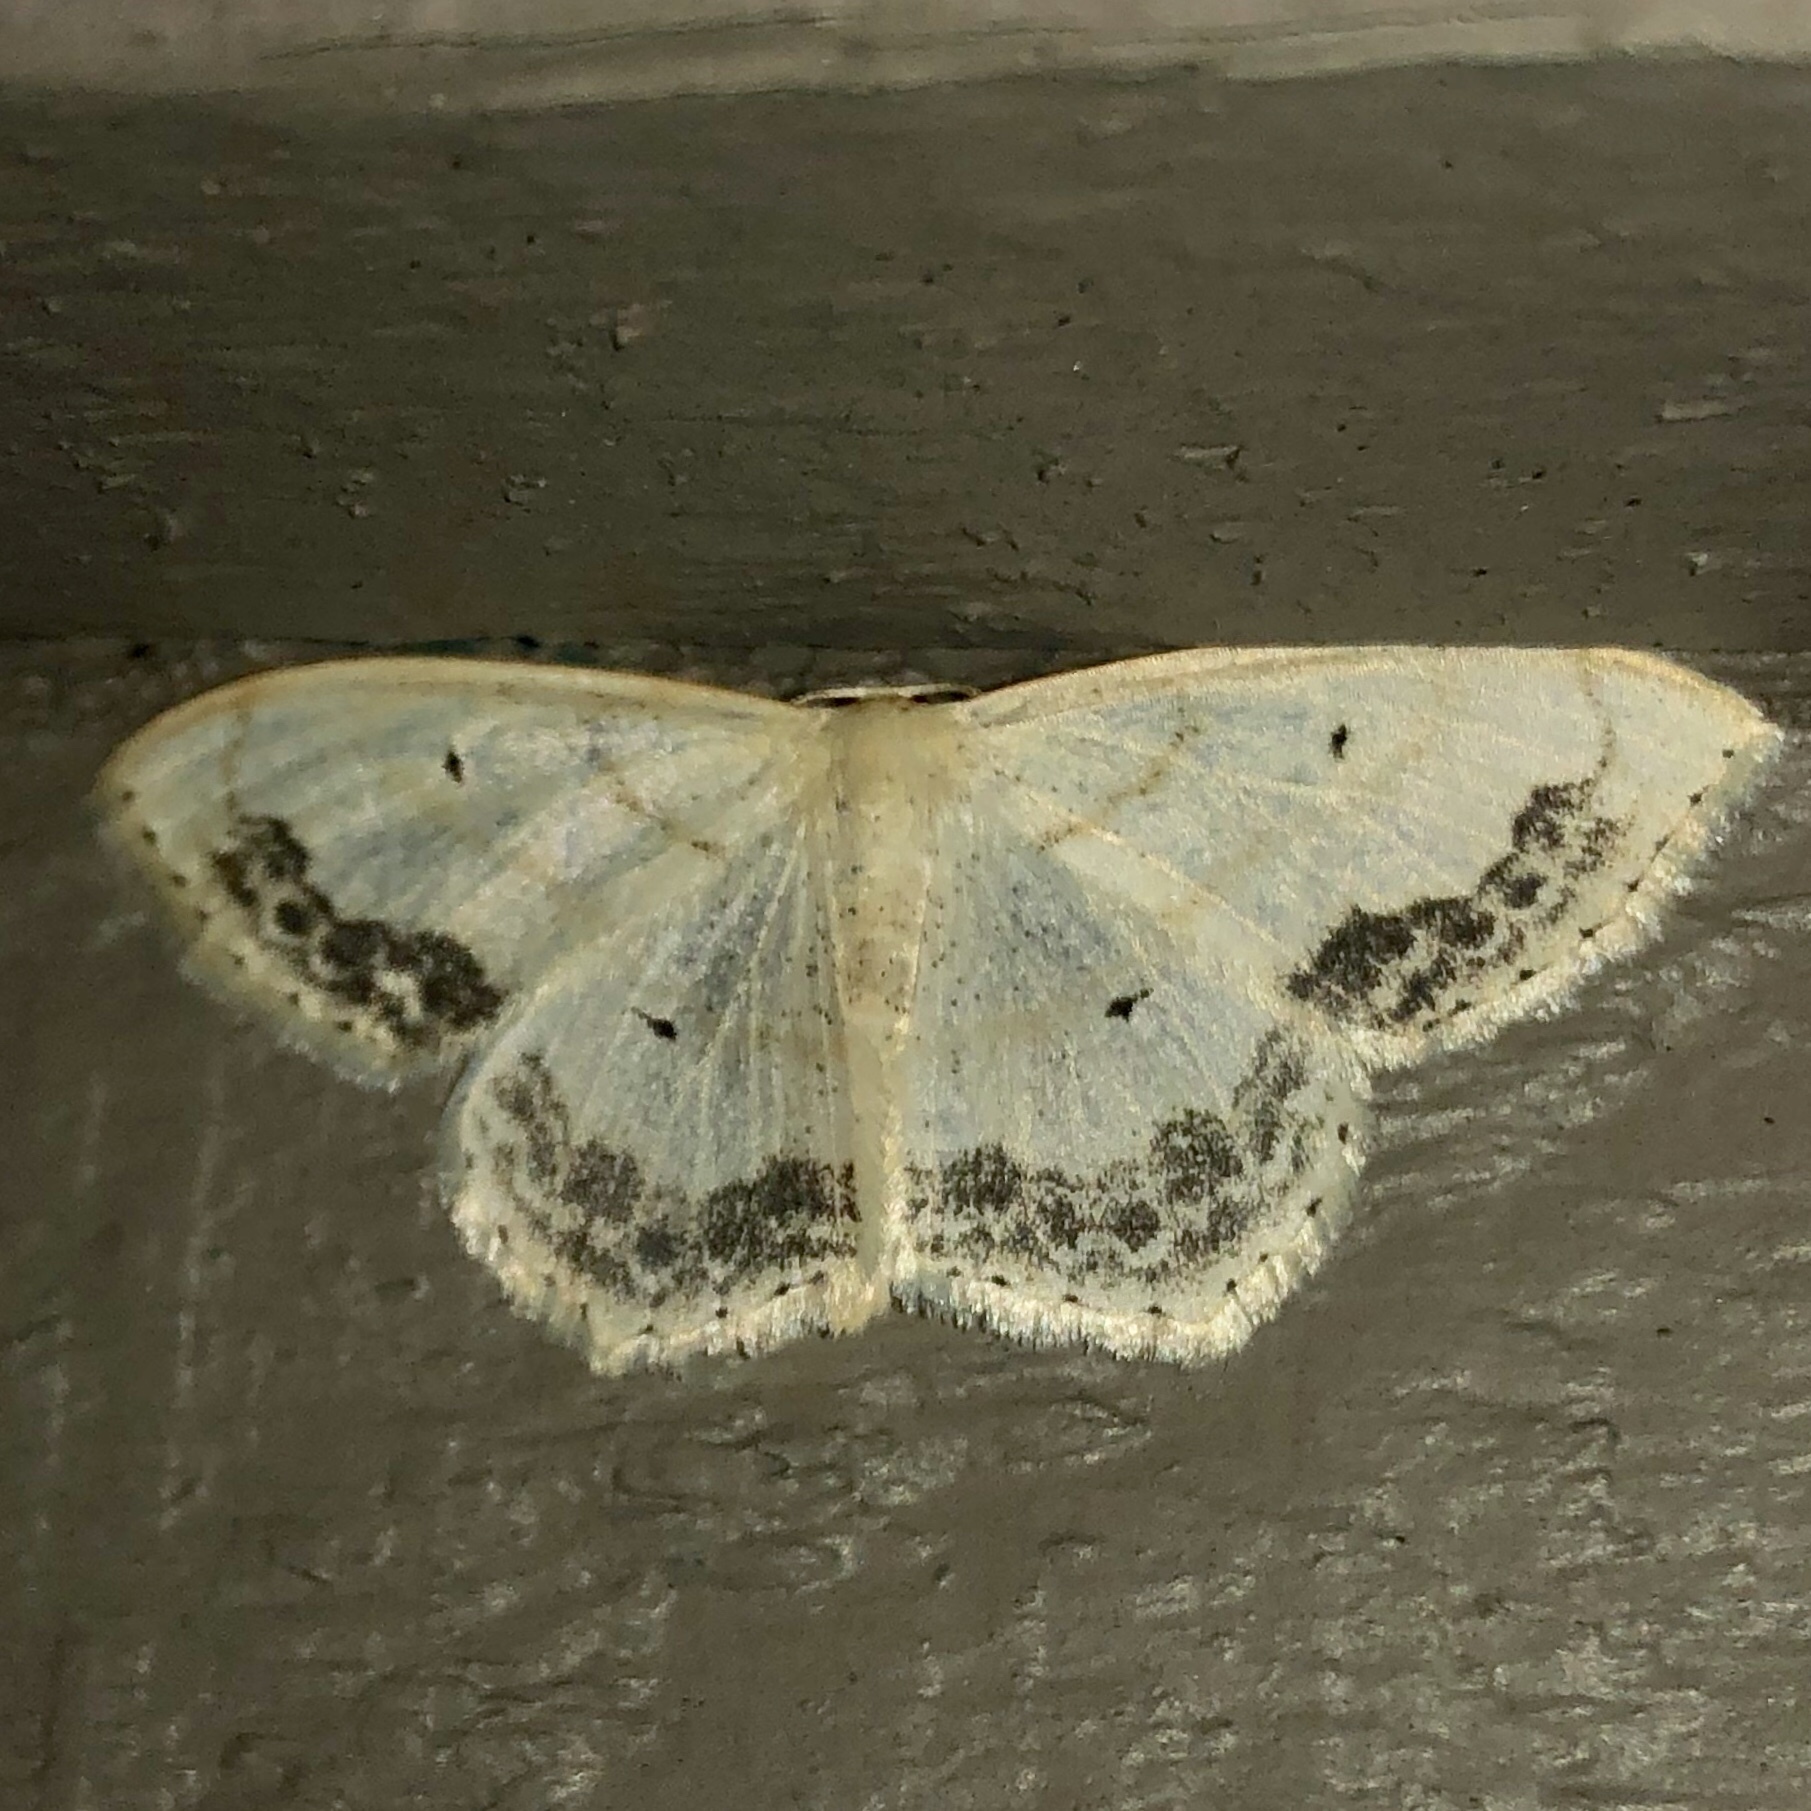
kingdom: Animalia
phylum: Arthropoda
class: Insecta
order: Lepidoptera
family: Geometridae
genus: Scopula
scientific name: Scopula limboundata
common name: Large lace border
